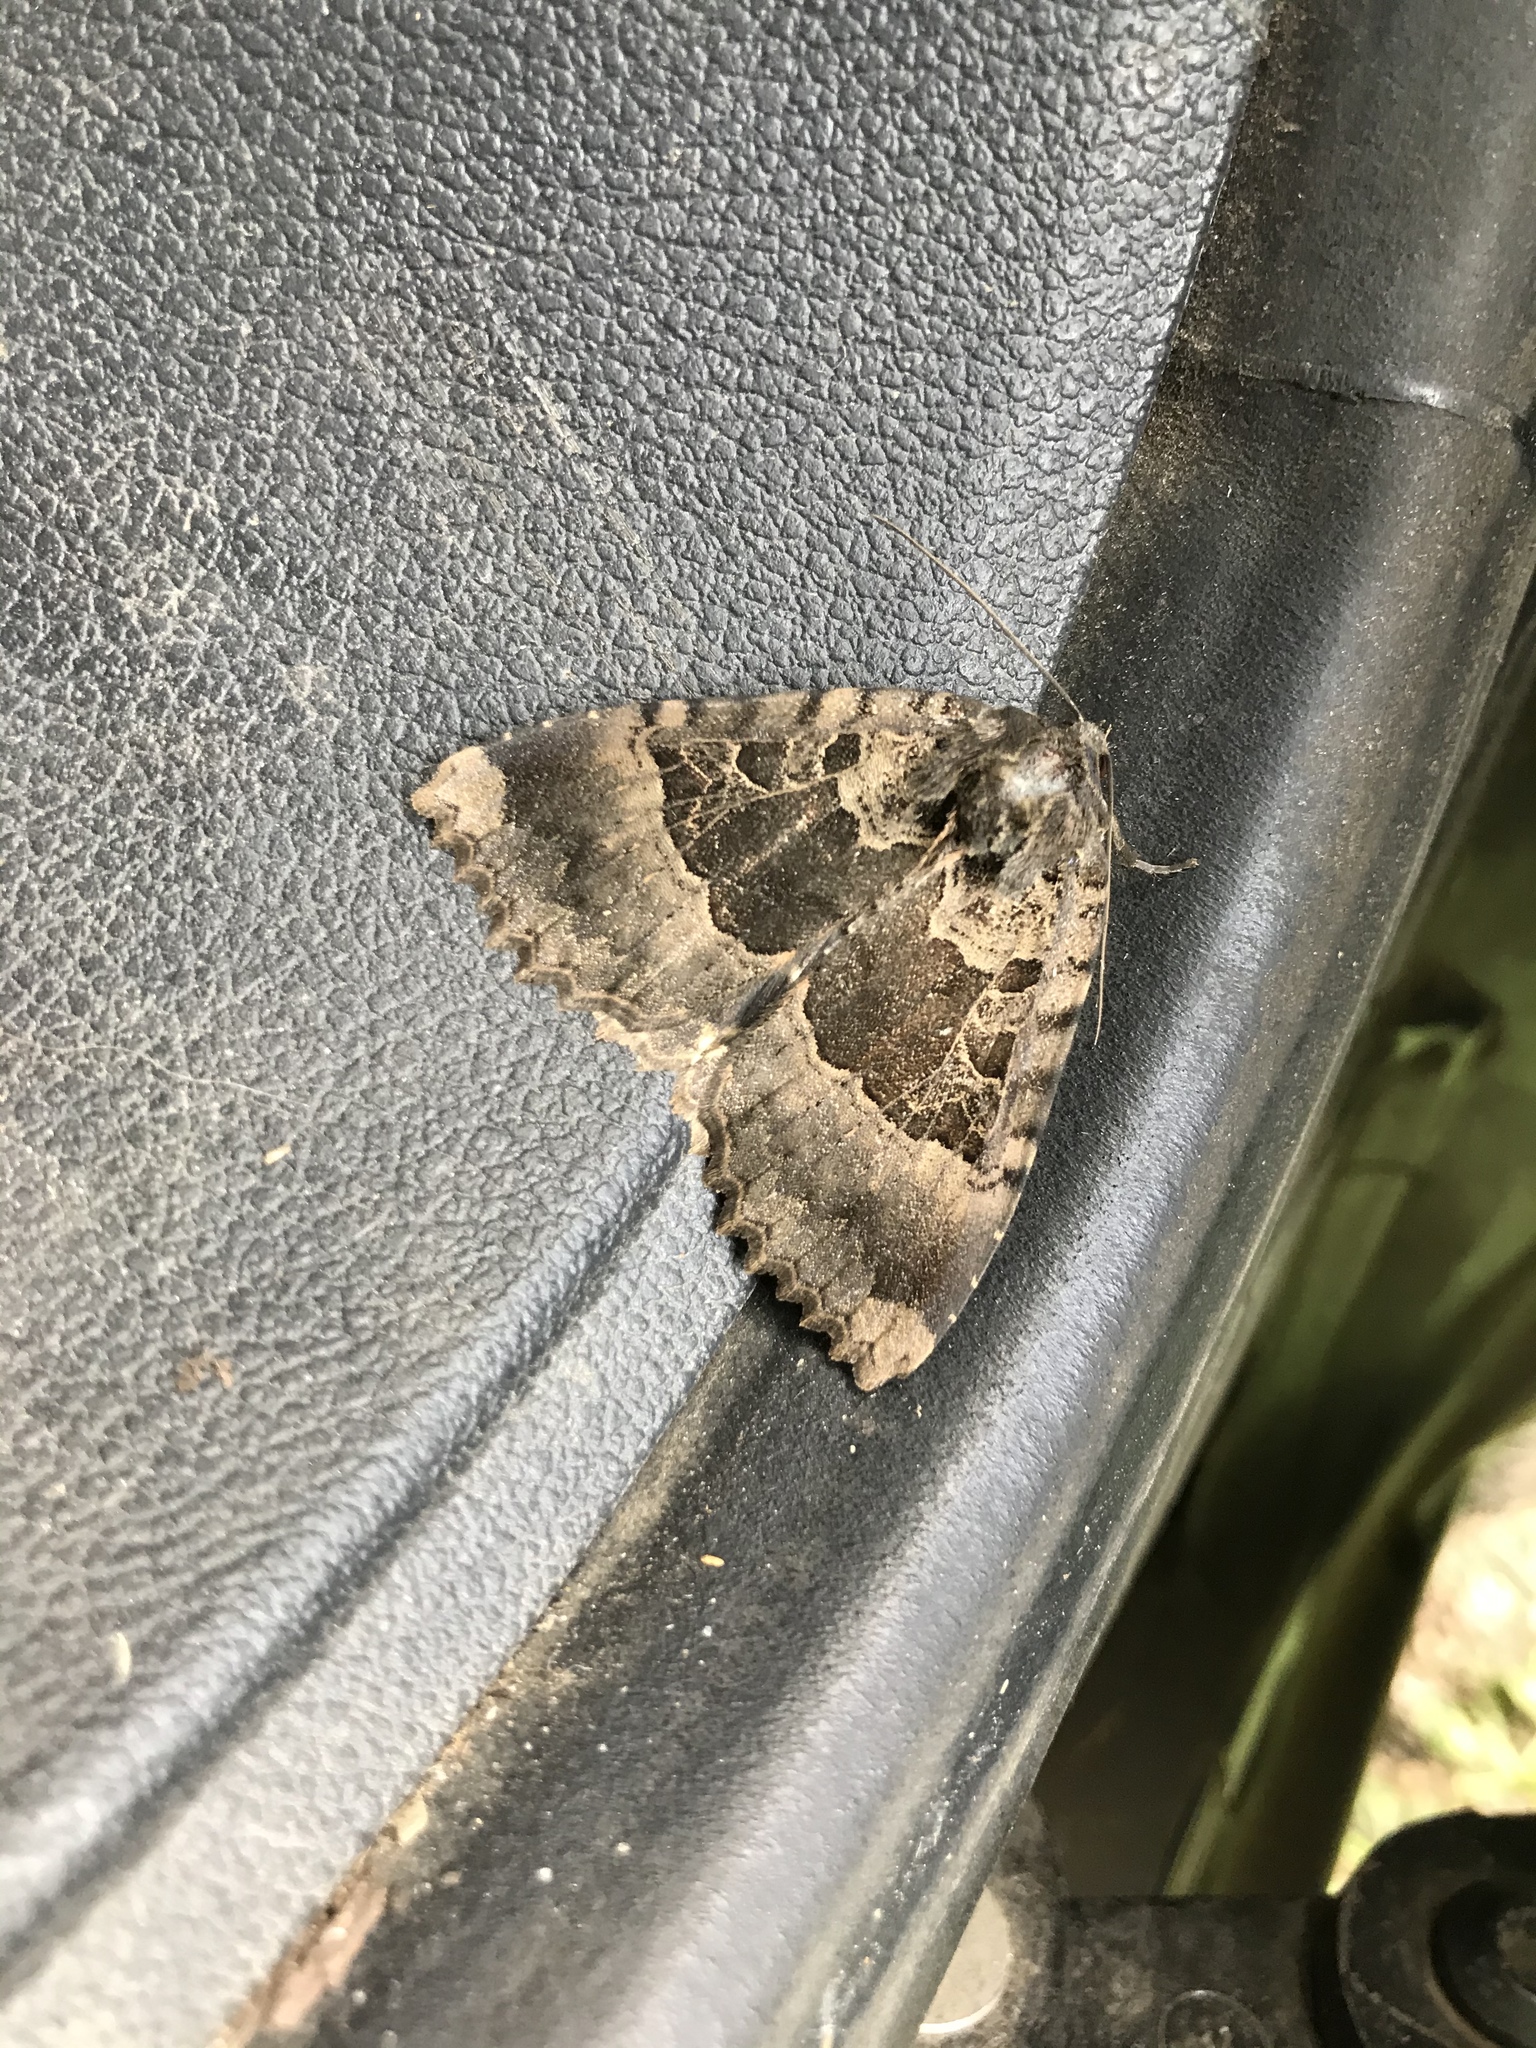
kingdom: Animalia
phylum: Arthropoda
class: Insecta
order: Lepidoptera
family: Noctuidae
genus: Mormo
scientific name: Mormo maura
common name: Old lady
